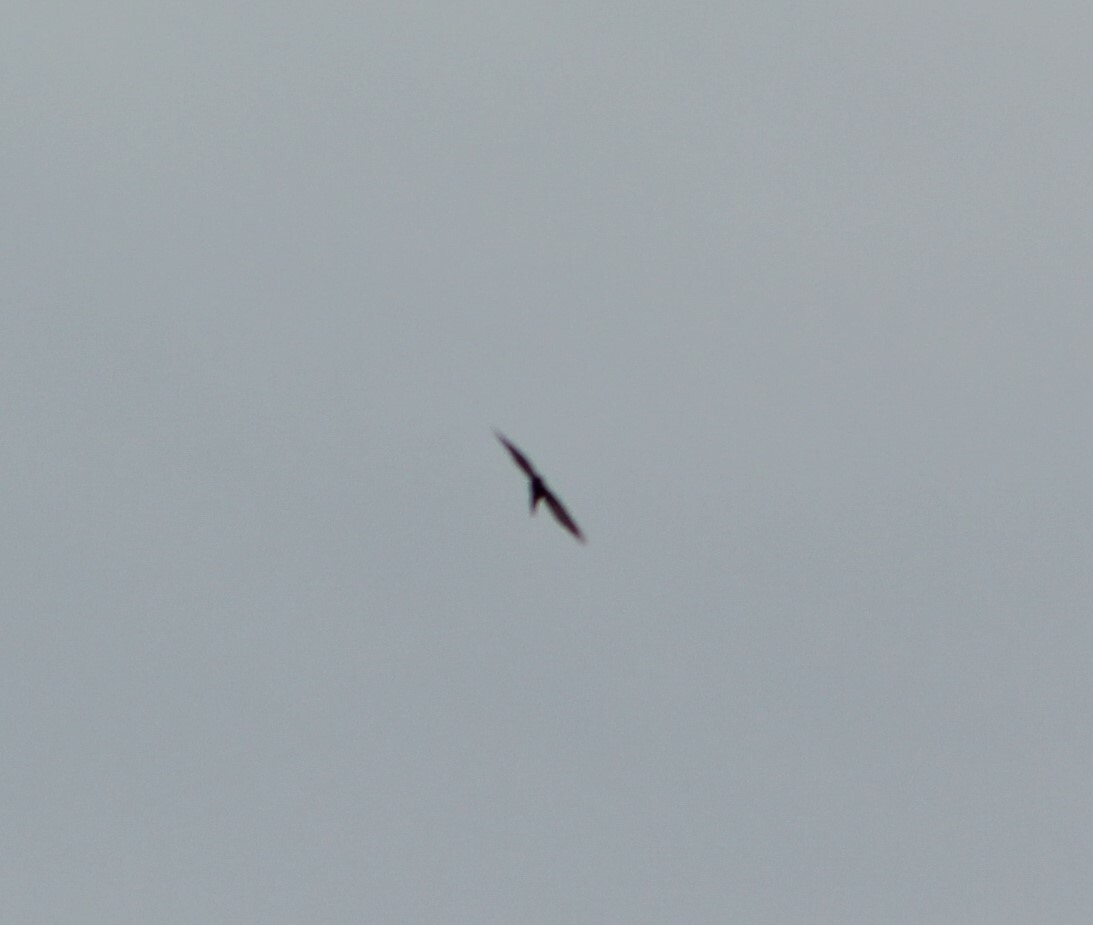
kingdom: Animalia
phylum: Chordata
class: Aves
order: Accipitriformes
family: Accipitridae
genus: Accipiter
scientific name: Accipiter nisus
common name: Eurasian sparrowhawk
